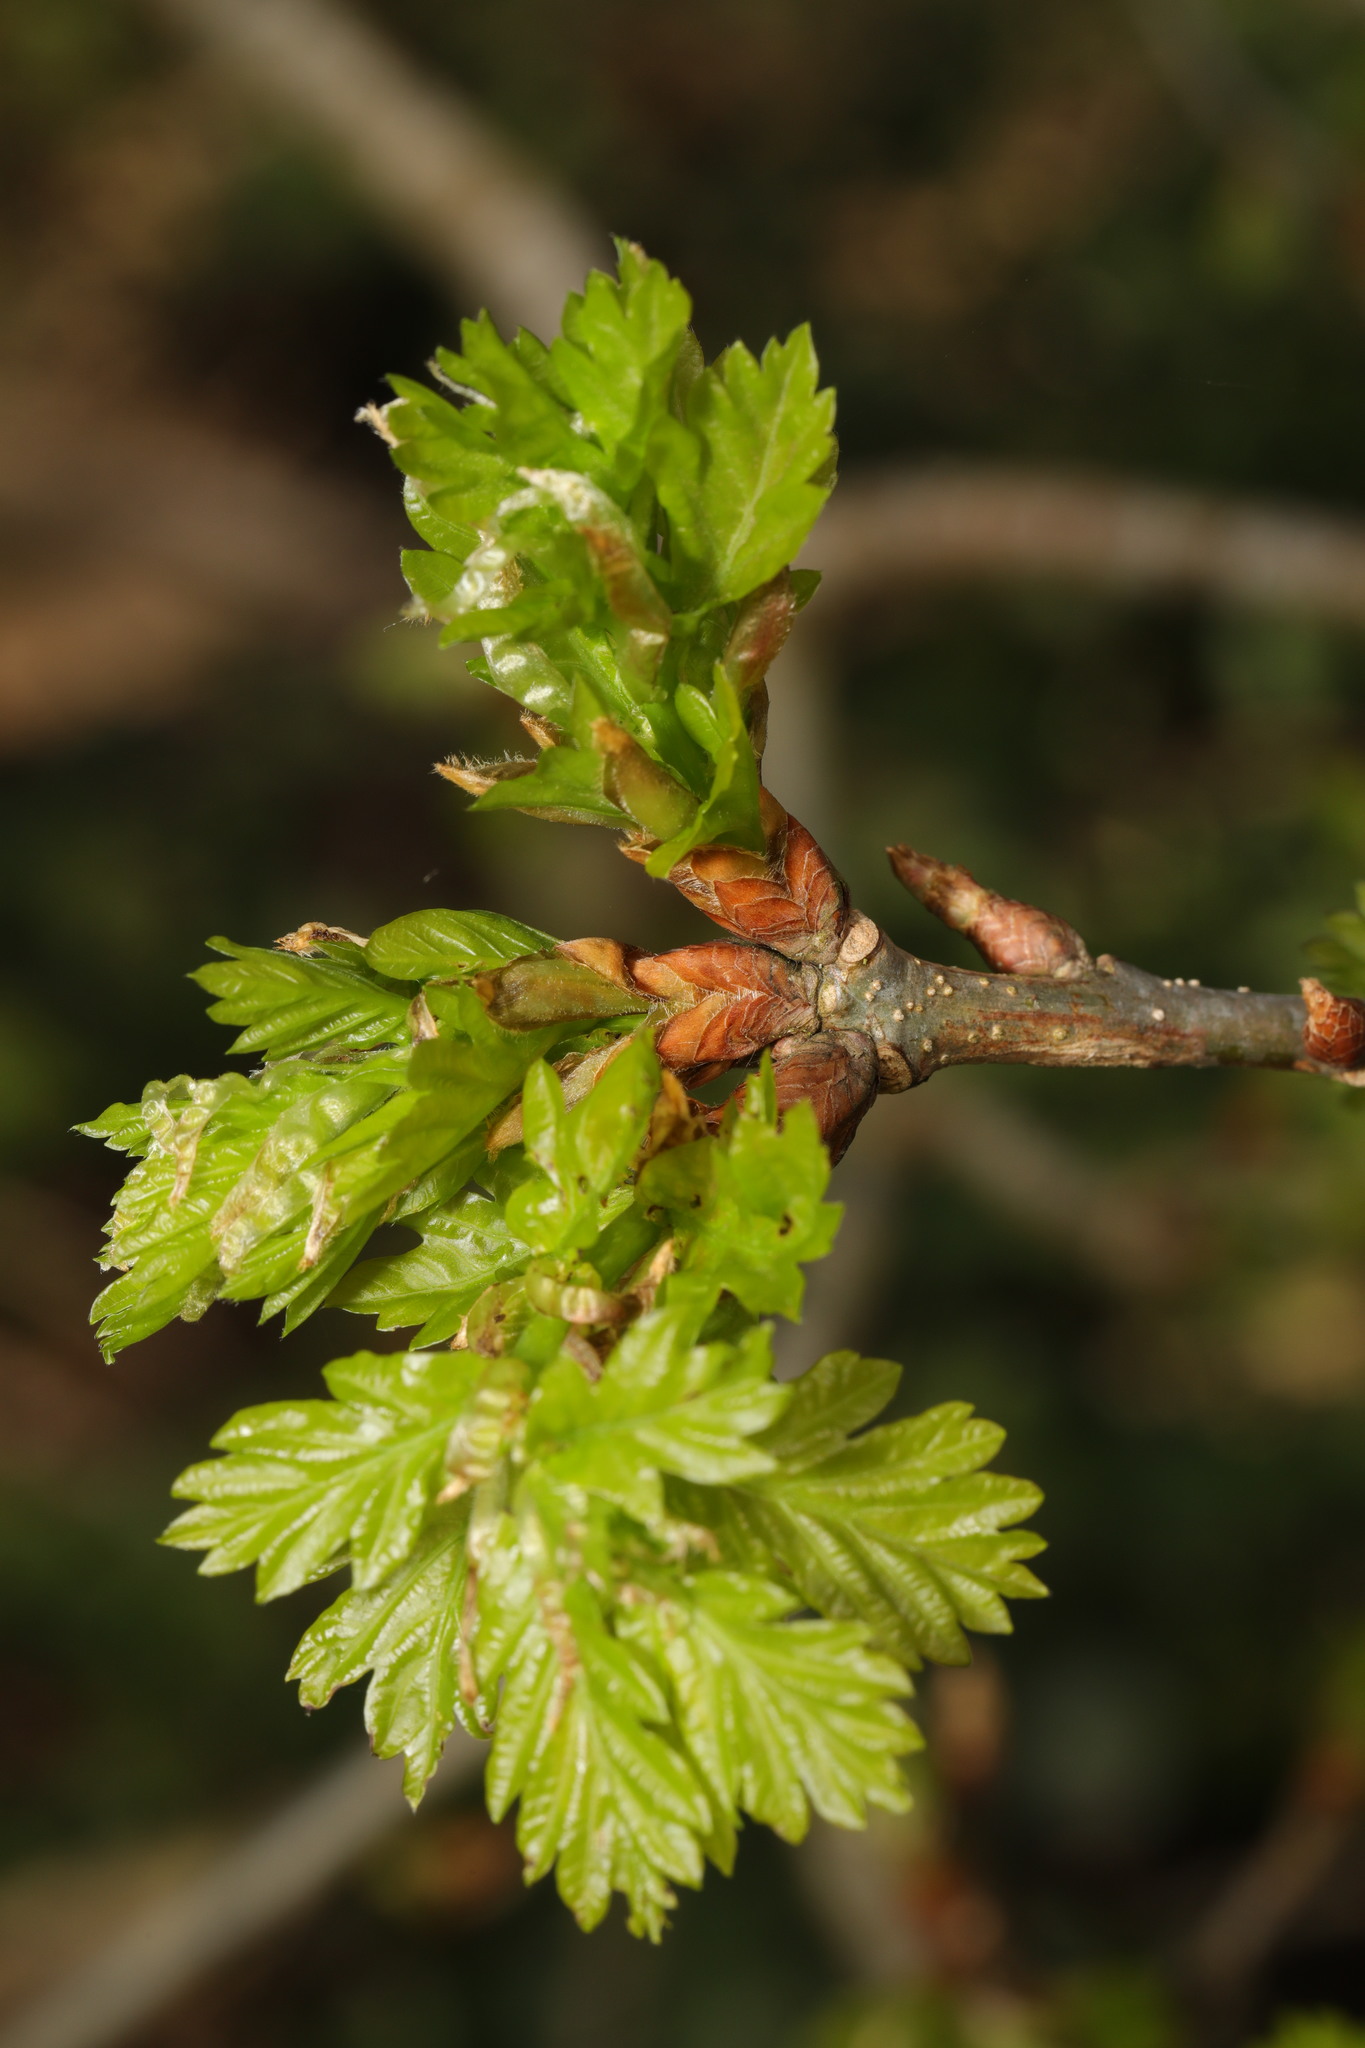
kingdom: Plantae
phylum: Tracheophyta
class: Magnoliopsida
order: Fagales
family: Fagaceae
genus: Quercus
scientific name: Quercus robur
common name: Pedunculate oak
